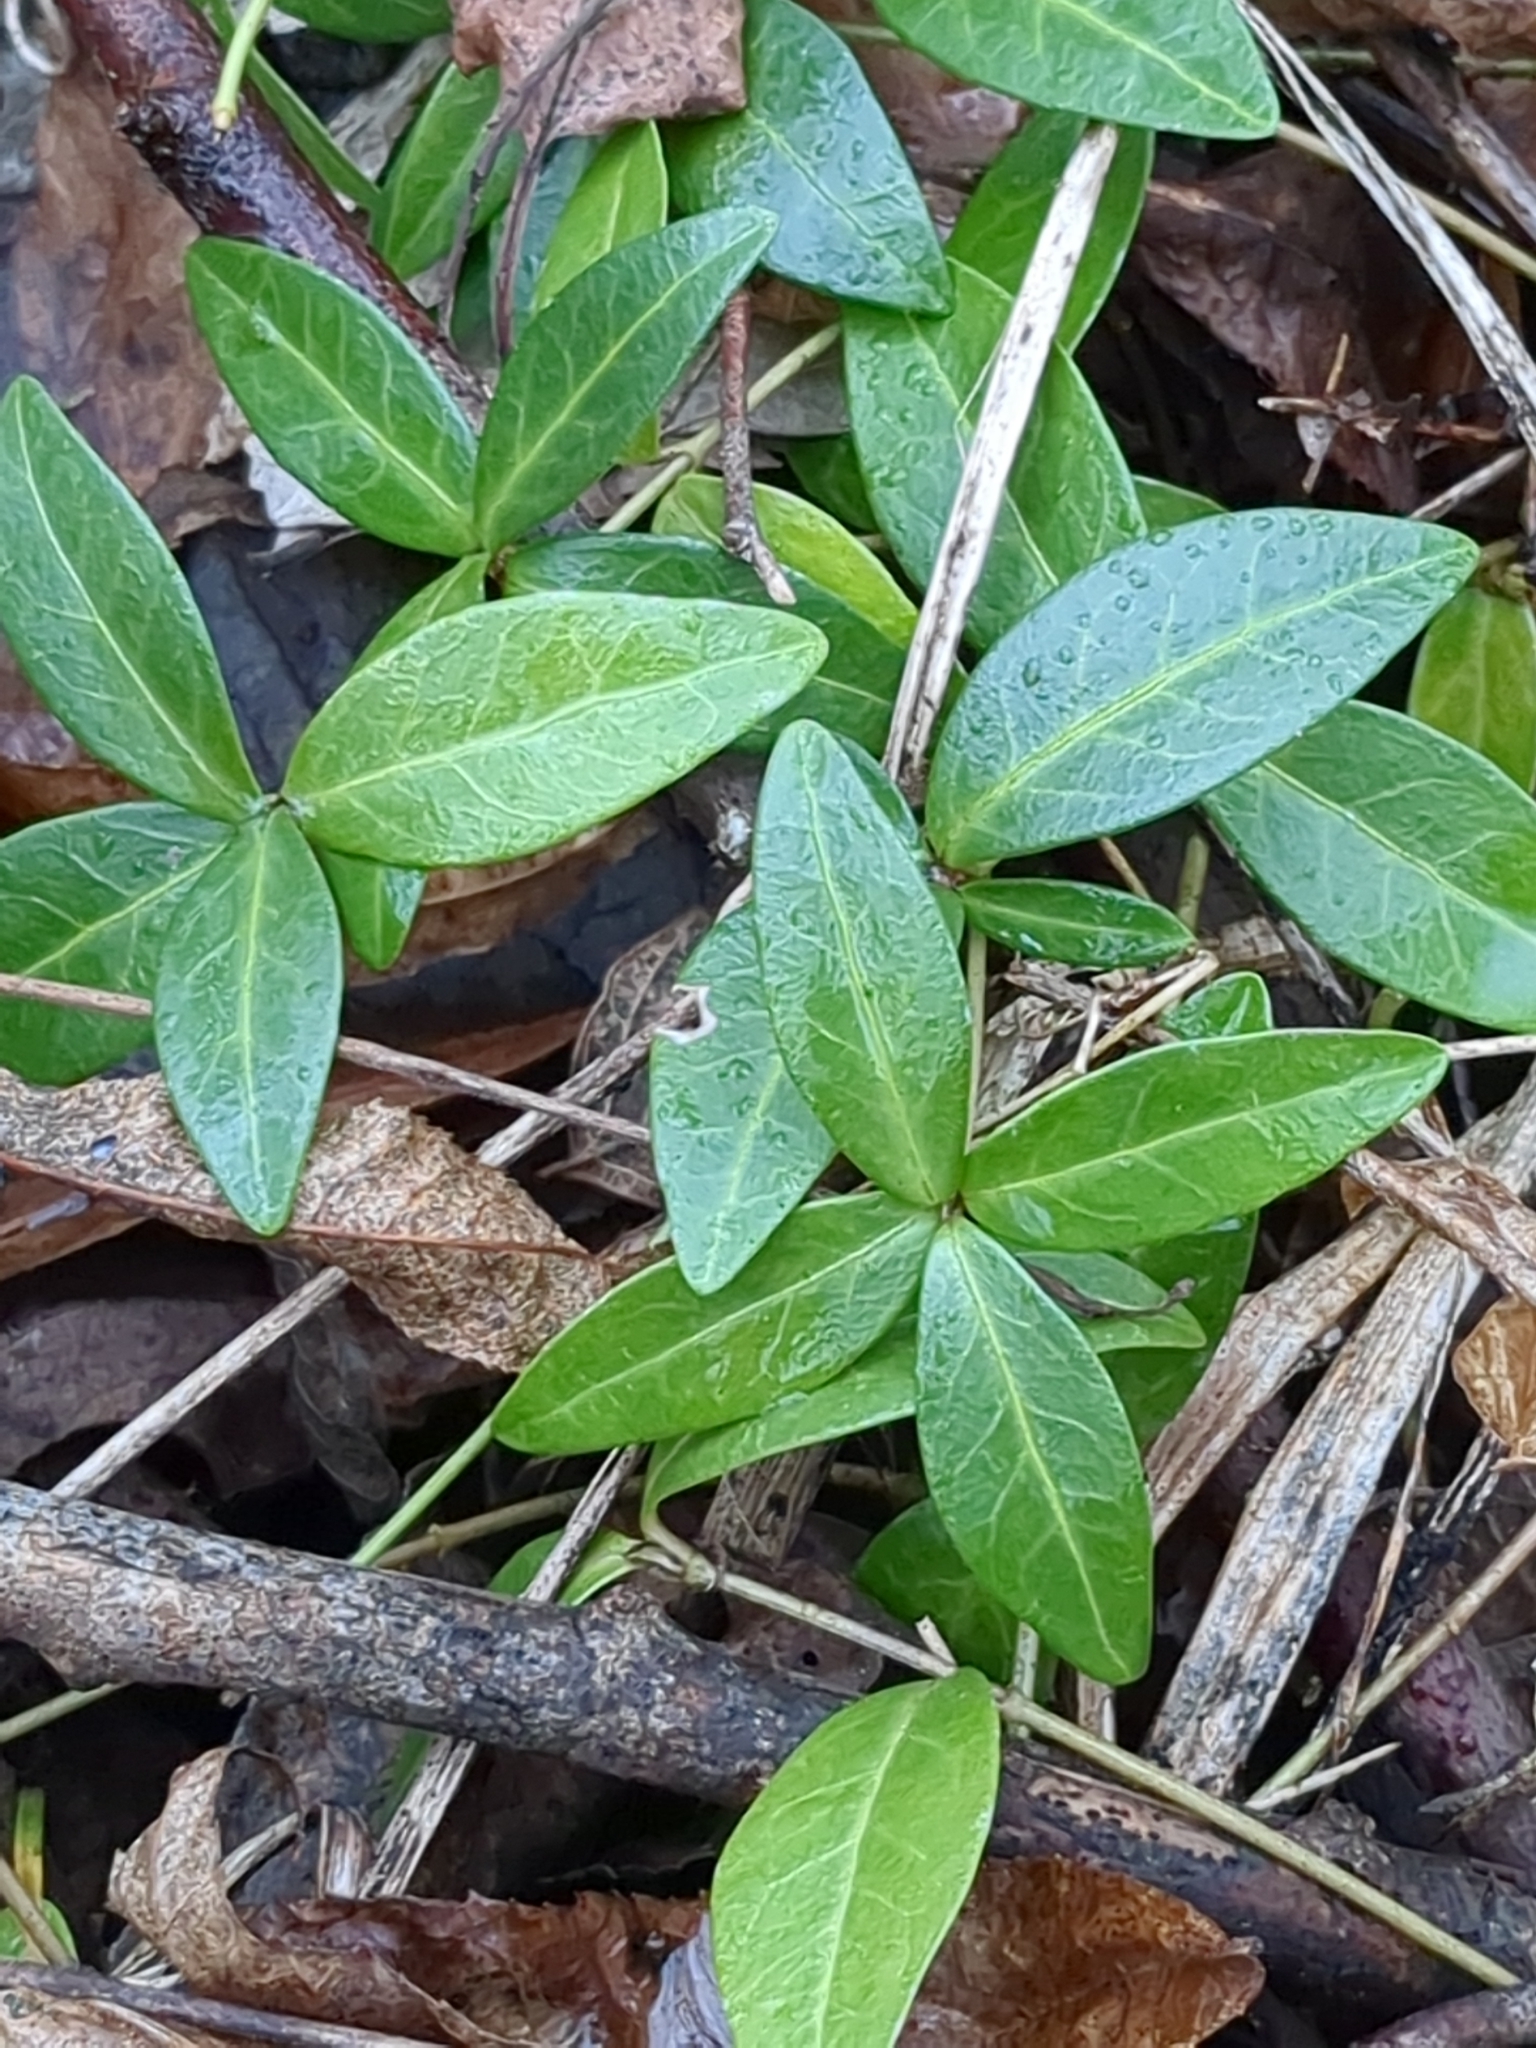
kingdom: Plantae
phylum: Tracheophyta
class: Magnoliopsida
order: Gentianales
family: Apocynaceae
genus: Vinca
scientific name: Vinca minor
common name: Lesser periwinkle
